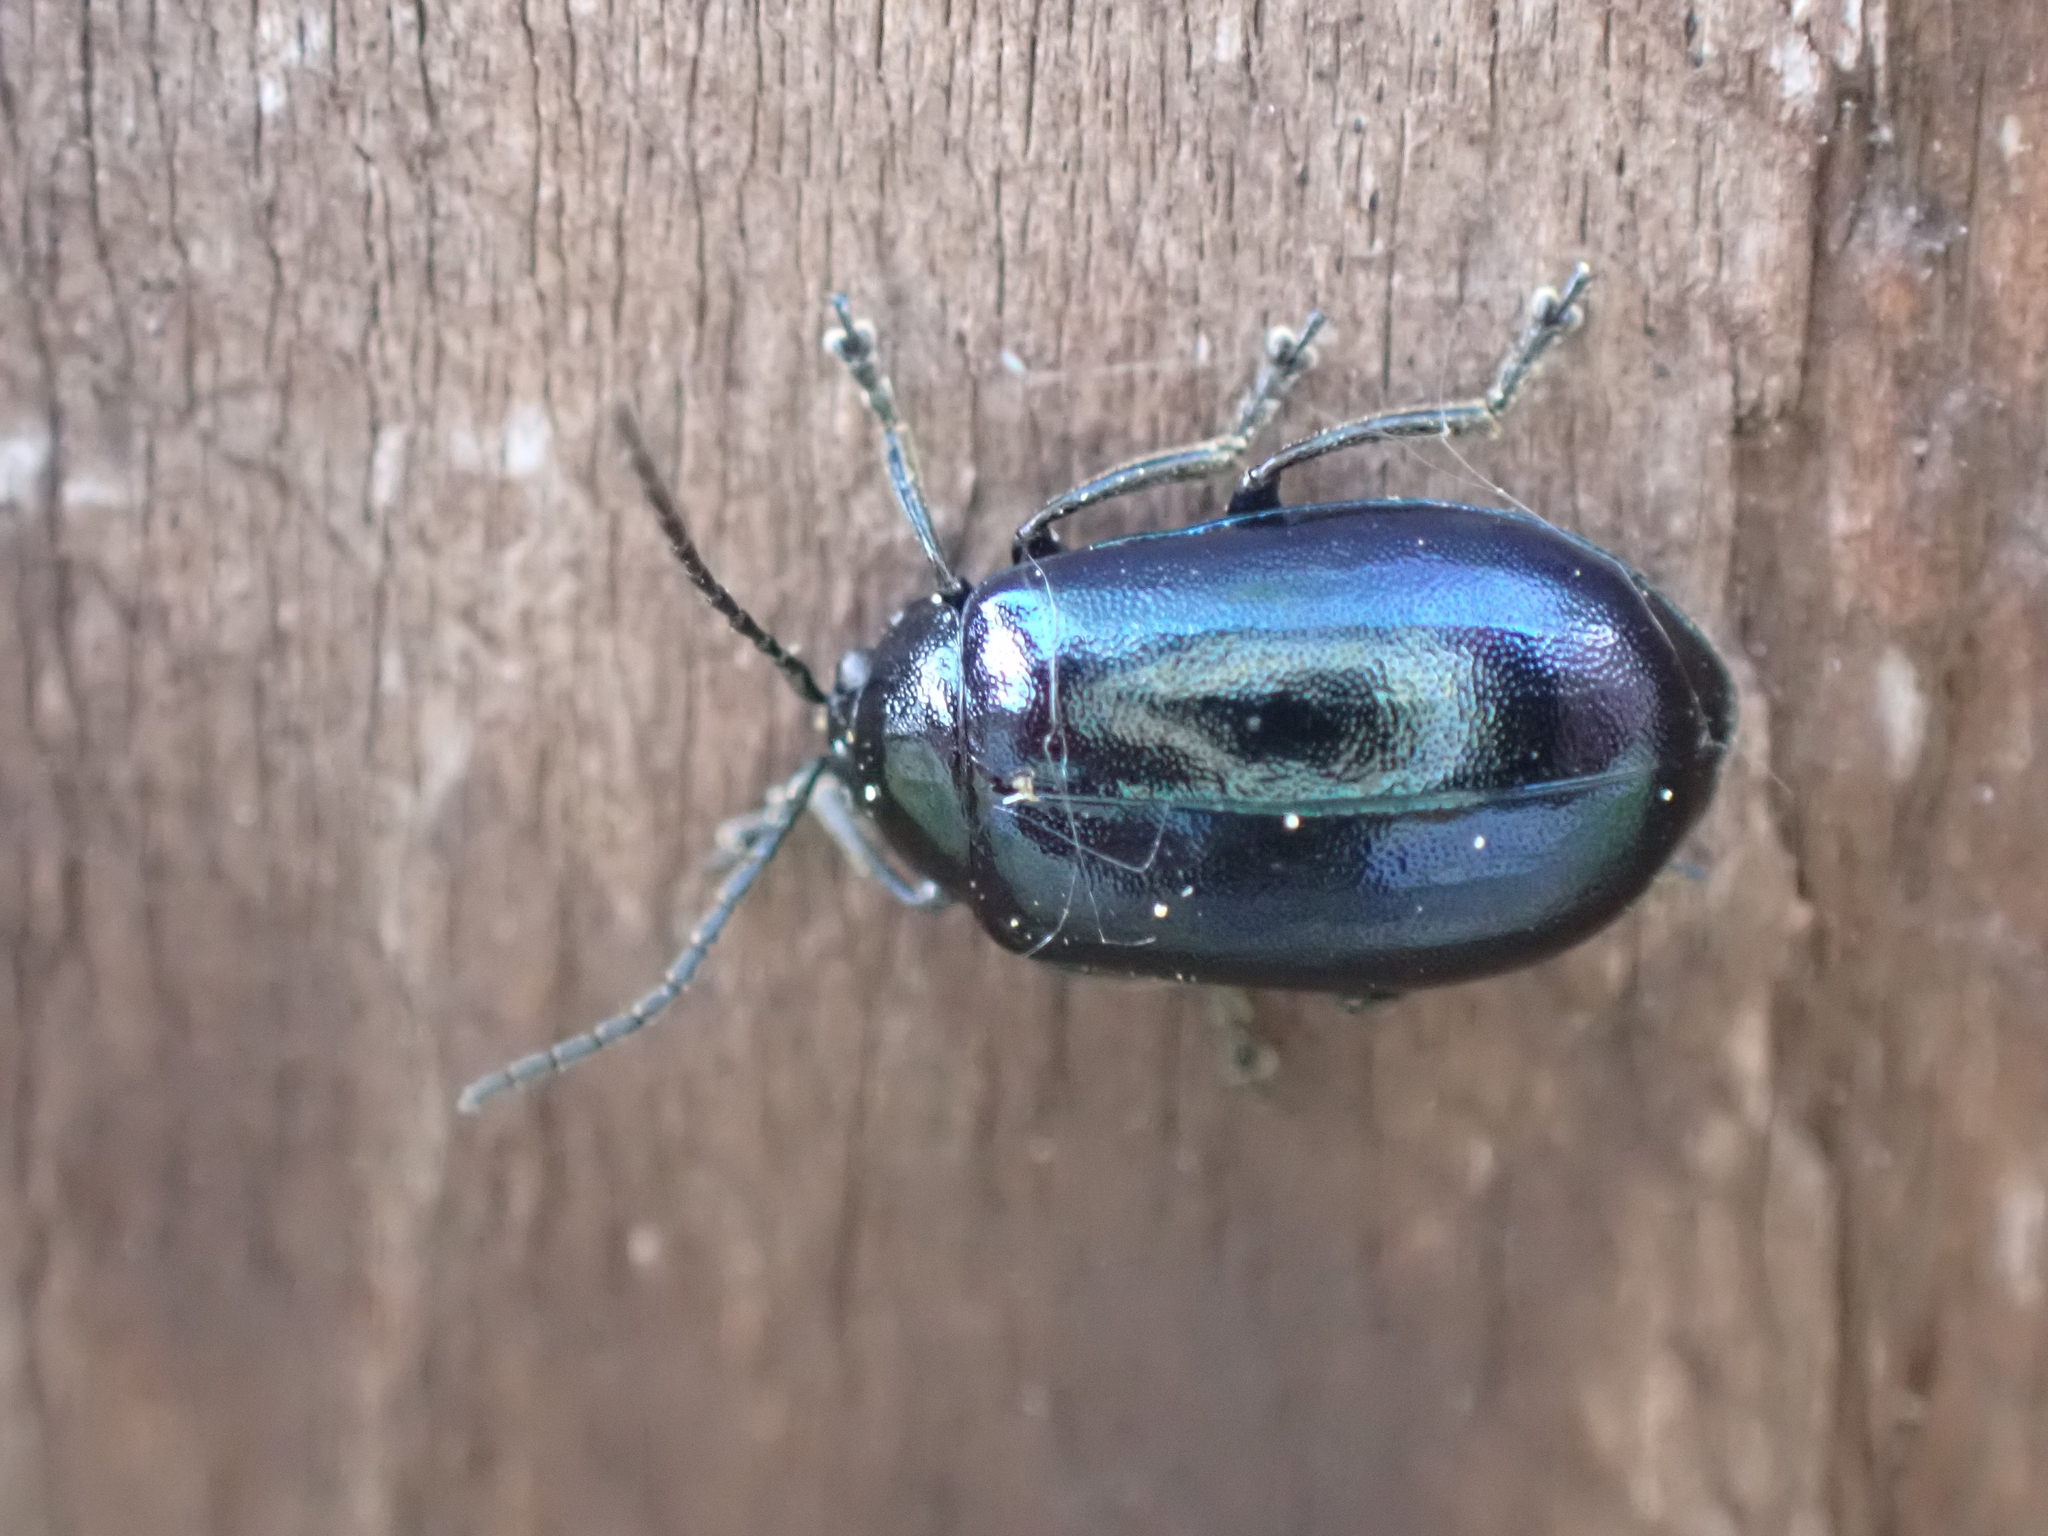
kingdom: Animalia
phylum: Arthropoda
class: Insecta
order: Coleoptera
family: Chrysomelidae
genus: Agelastica
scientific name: Agelastica alni
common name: Alder leaf beetle
